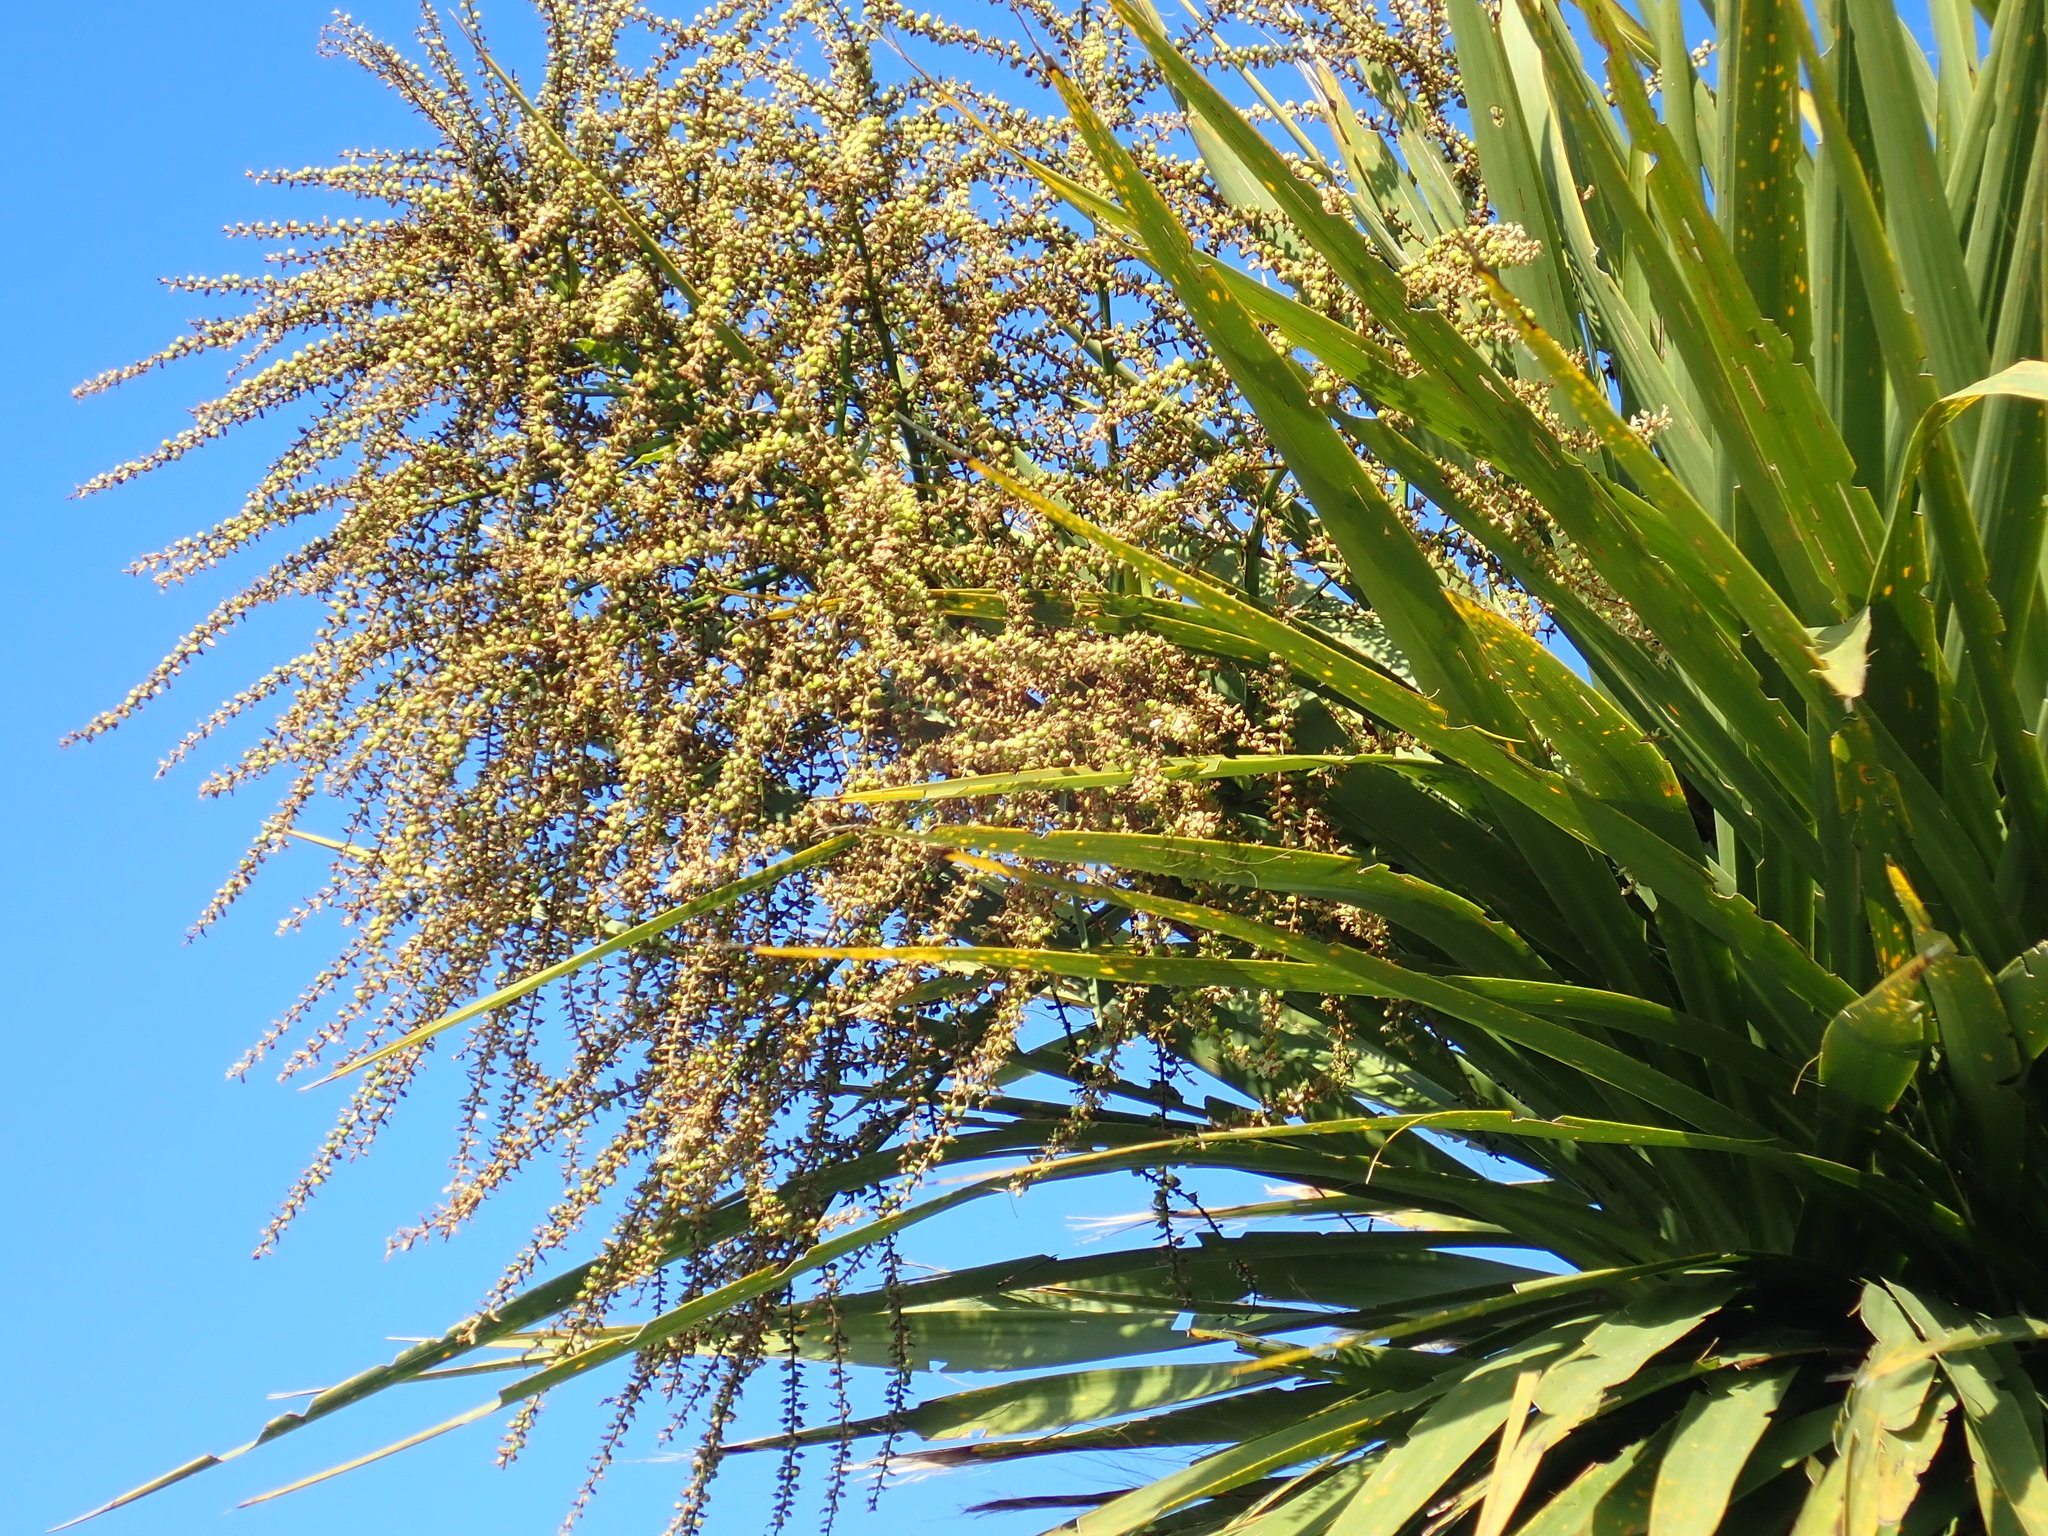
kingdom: Plantae
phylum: Tracheophyta
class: Liliopsida
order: Asparagales
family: Asparagaceae
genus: Cordyline
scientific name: Cordyline australis
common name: Cabbage-palm
